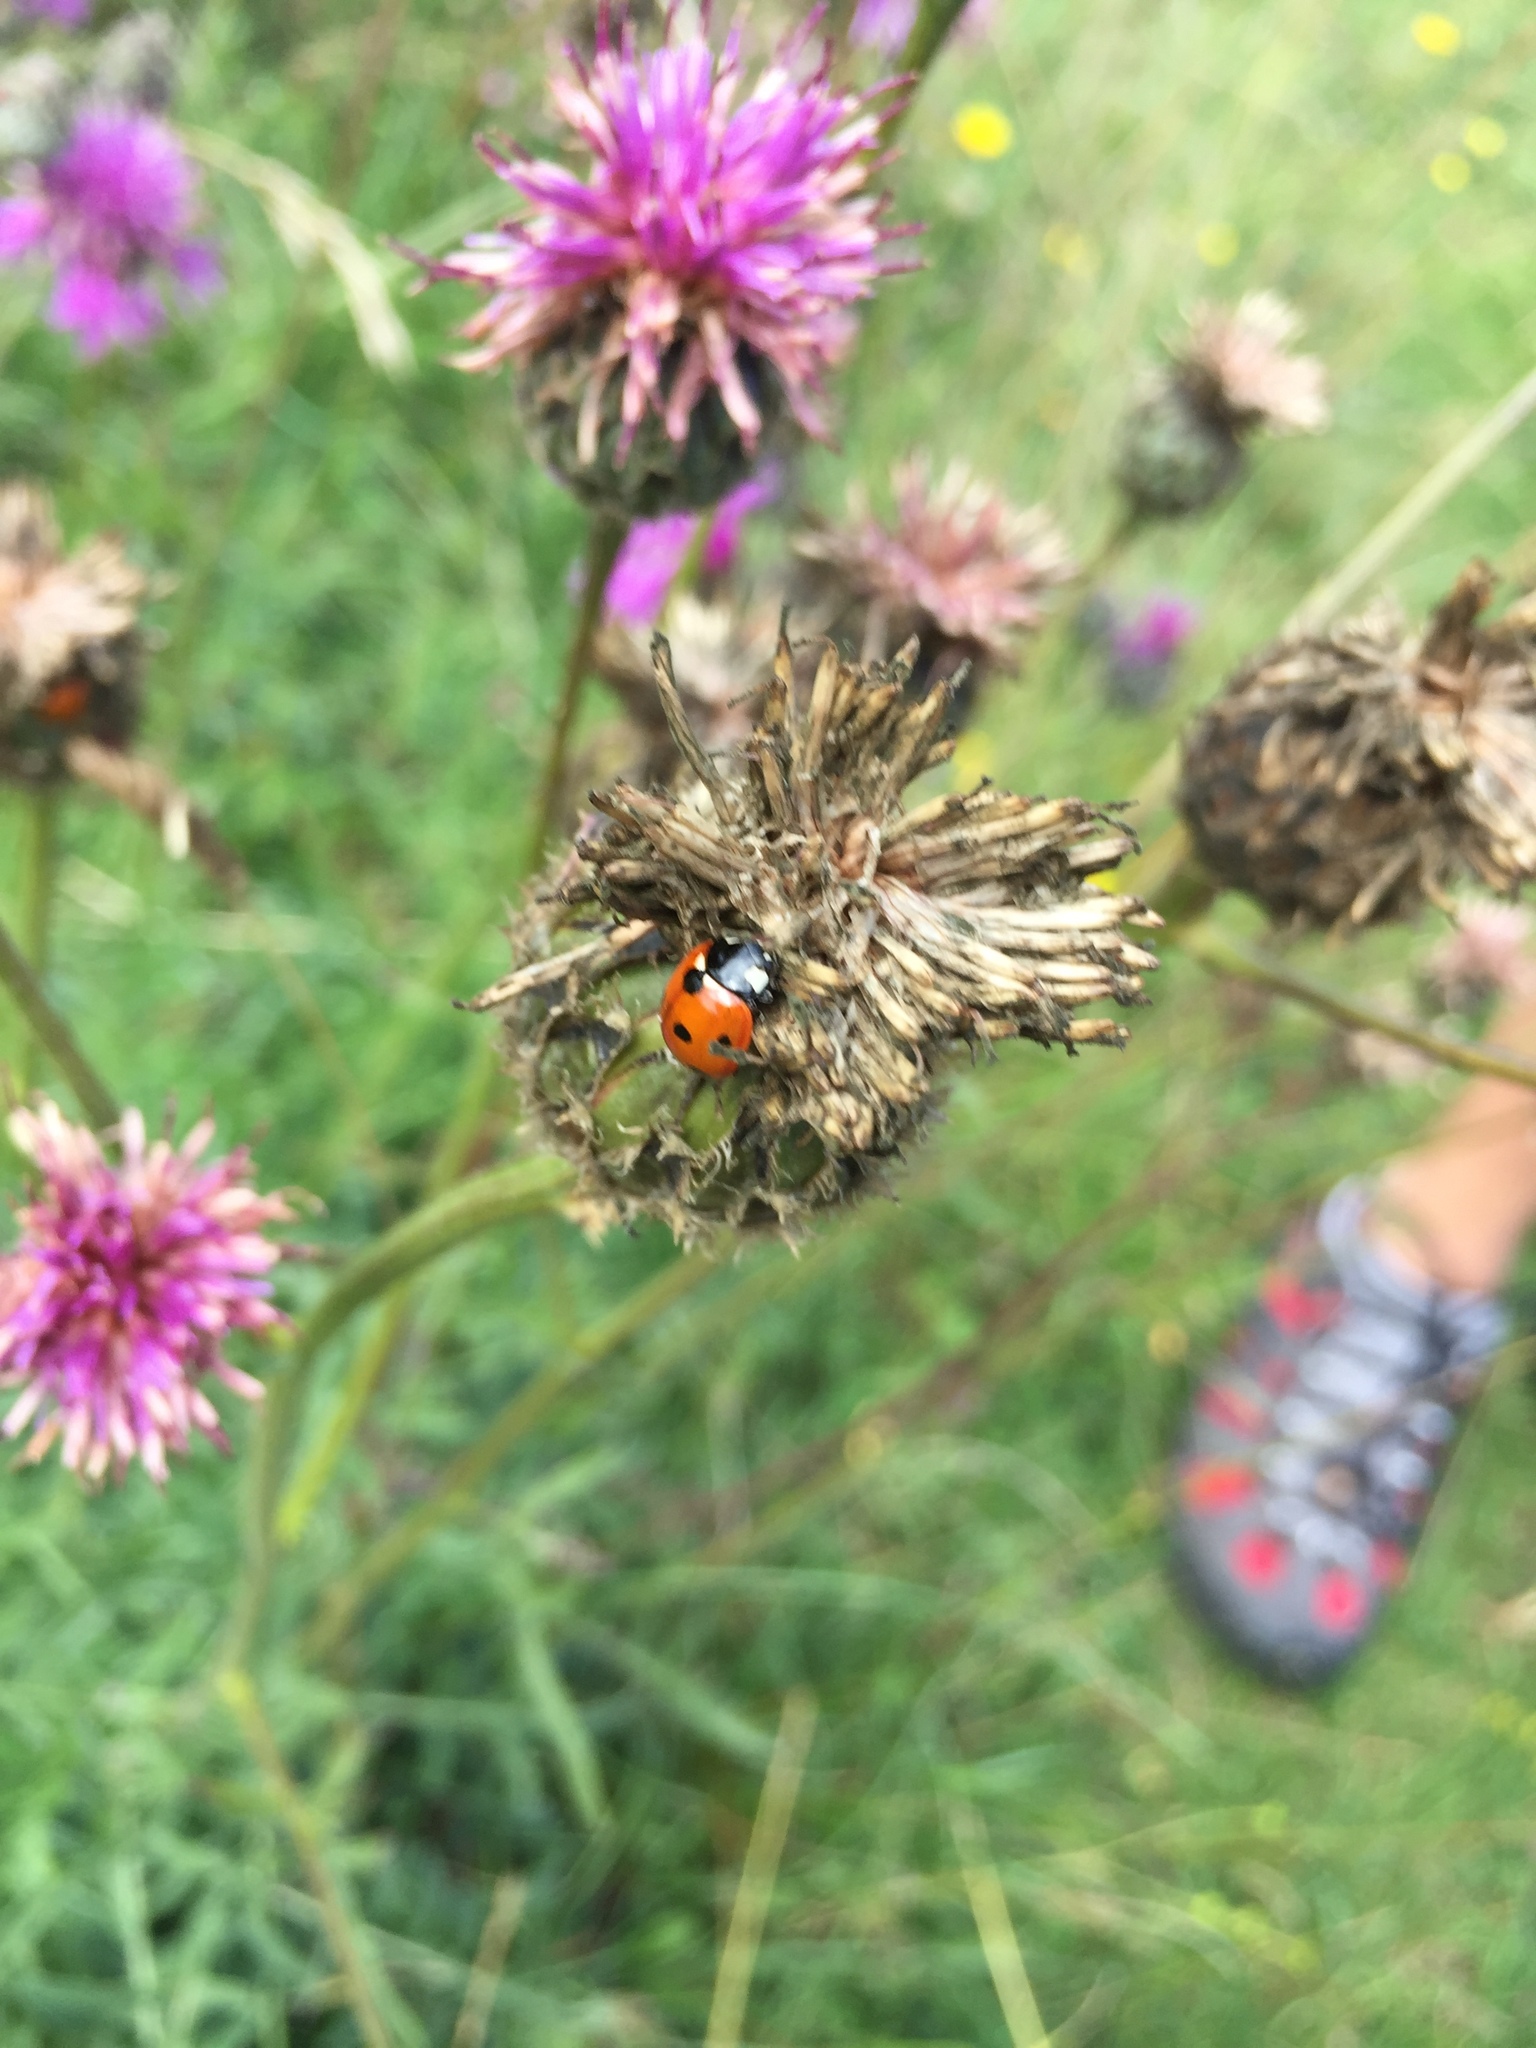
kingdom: Animalia
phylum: Arthropoda
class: Insecta
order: Coleoptera
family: Coccinellidae
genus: Coccinella
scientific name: Coccinella septempunctata
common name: Sevenspotted lady beetle
